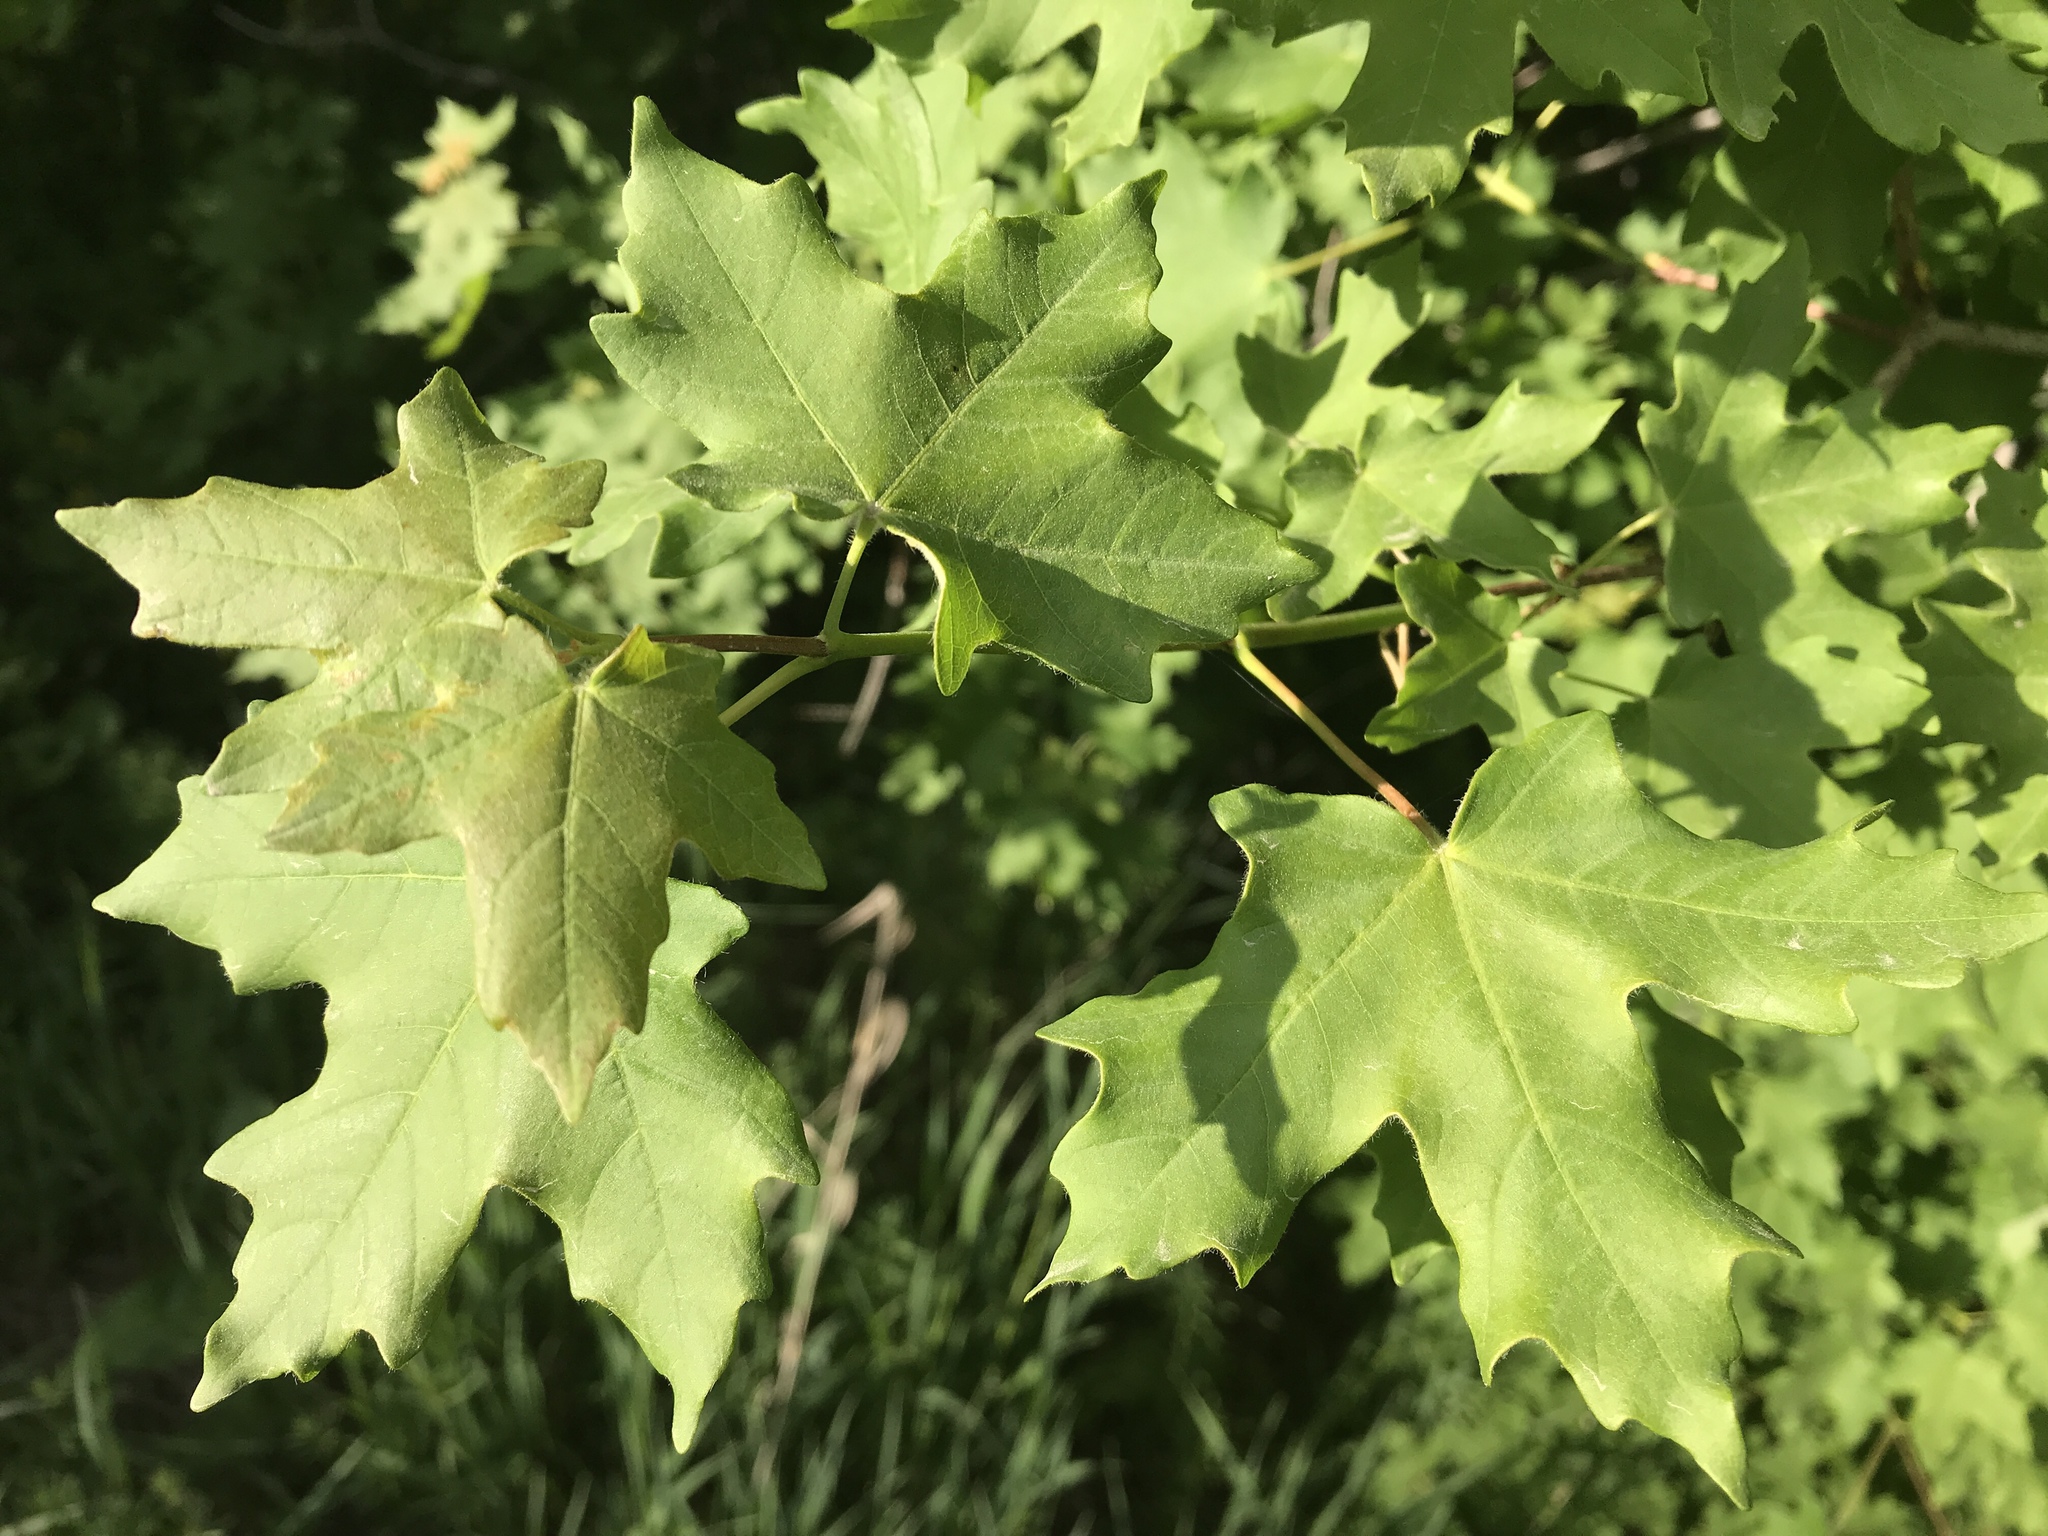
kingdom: Plantae
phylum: Tracheophyta
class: Magnoliopsida
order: Sapindales
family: Sapindaceae
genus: Acer
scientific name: Acer grandidentatum
